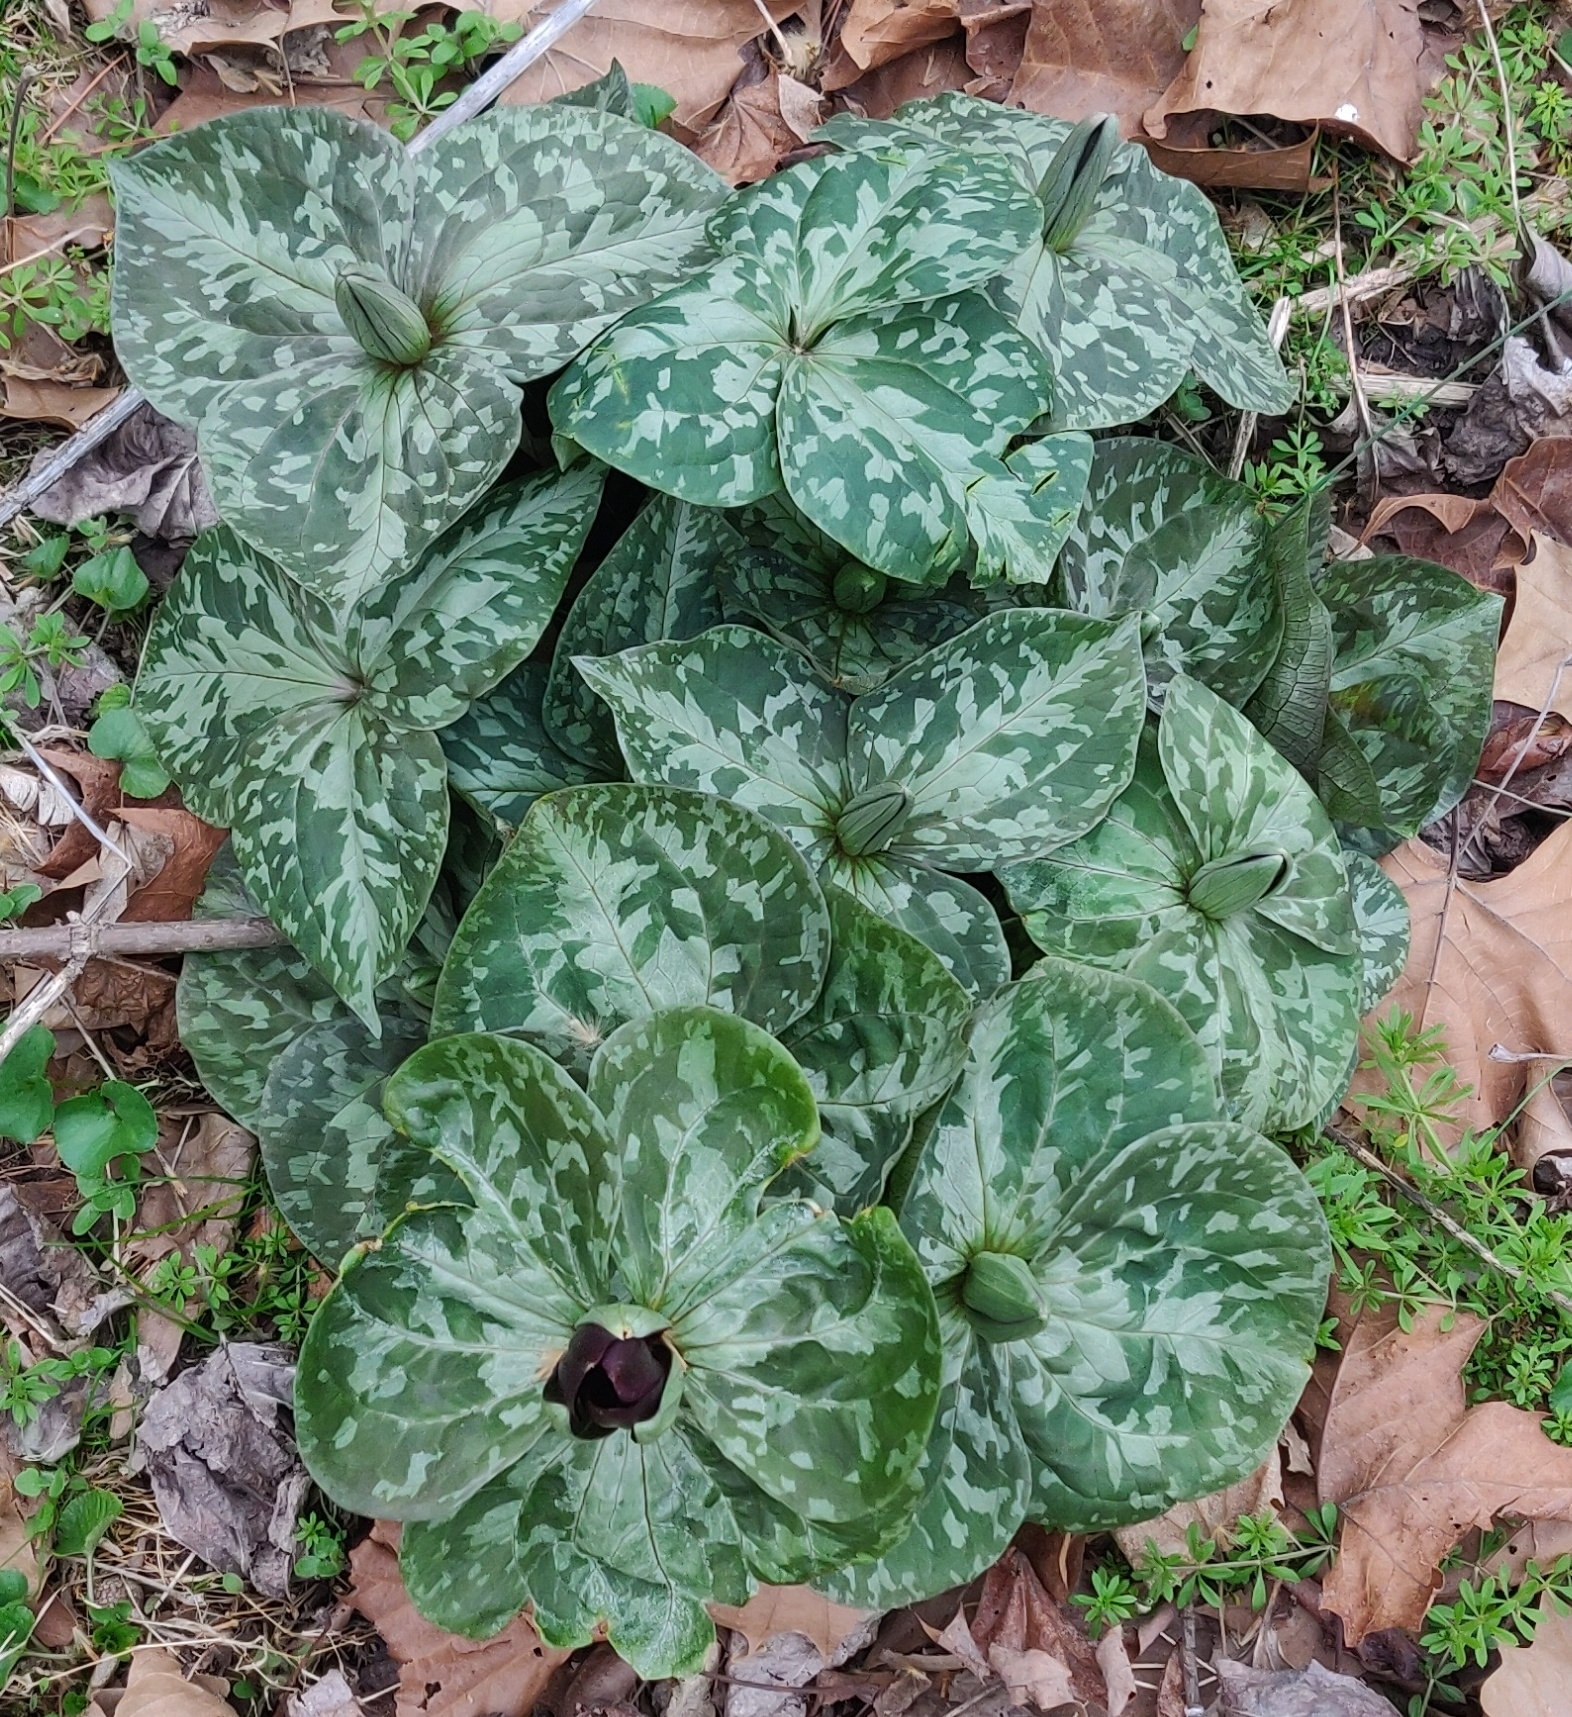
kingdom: Plantae
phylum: Tracheophyta
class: Liliopsida
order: Liliales
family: Melanthiaceae
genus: Trillium
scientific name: Trillium cuneatum
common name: Cuneate trillium
